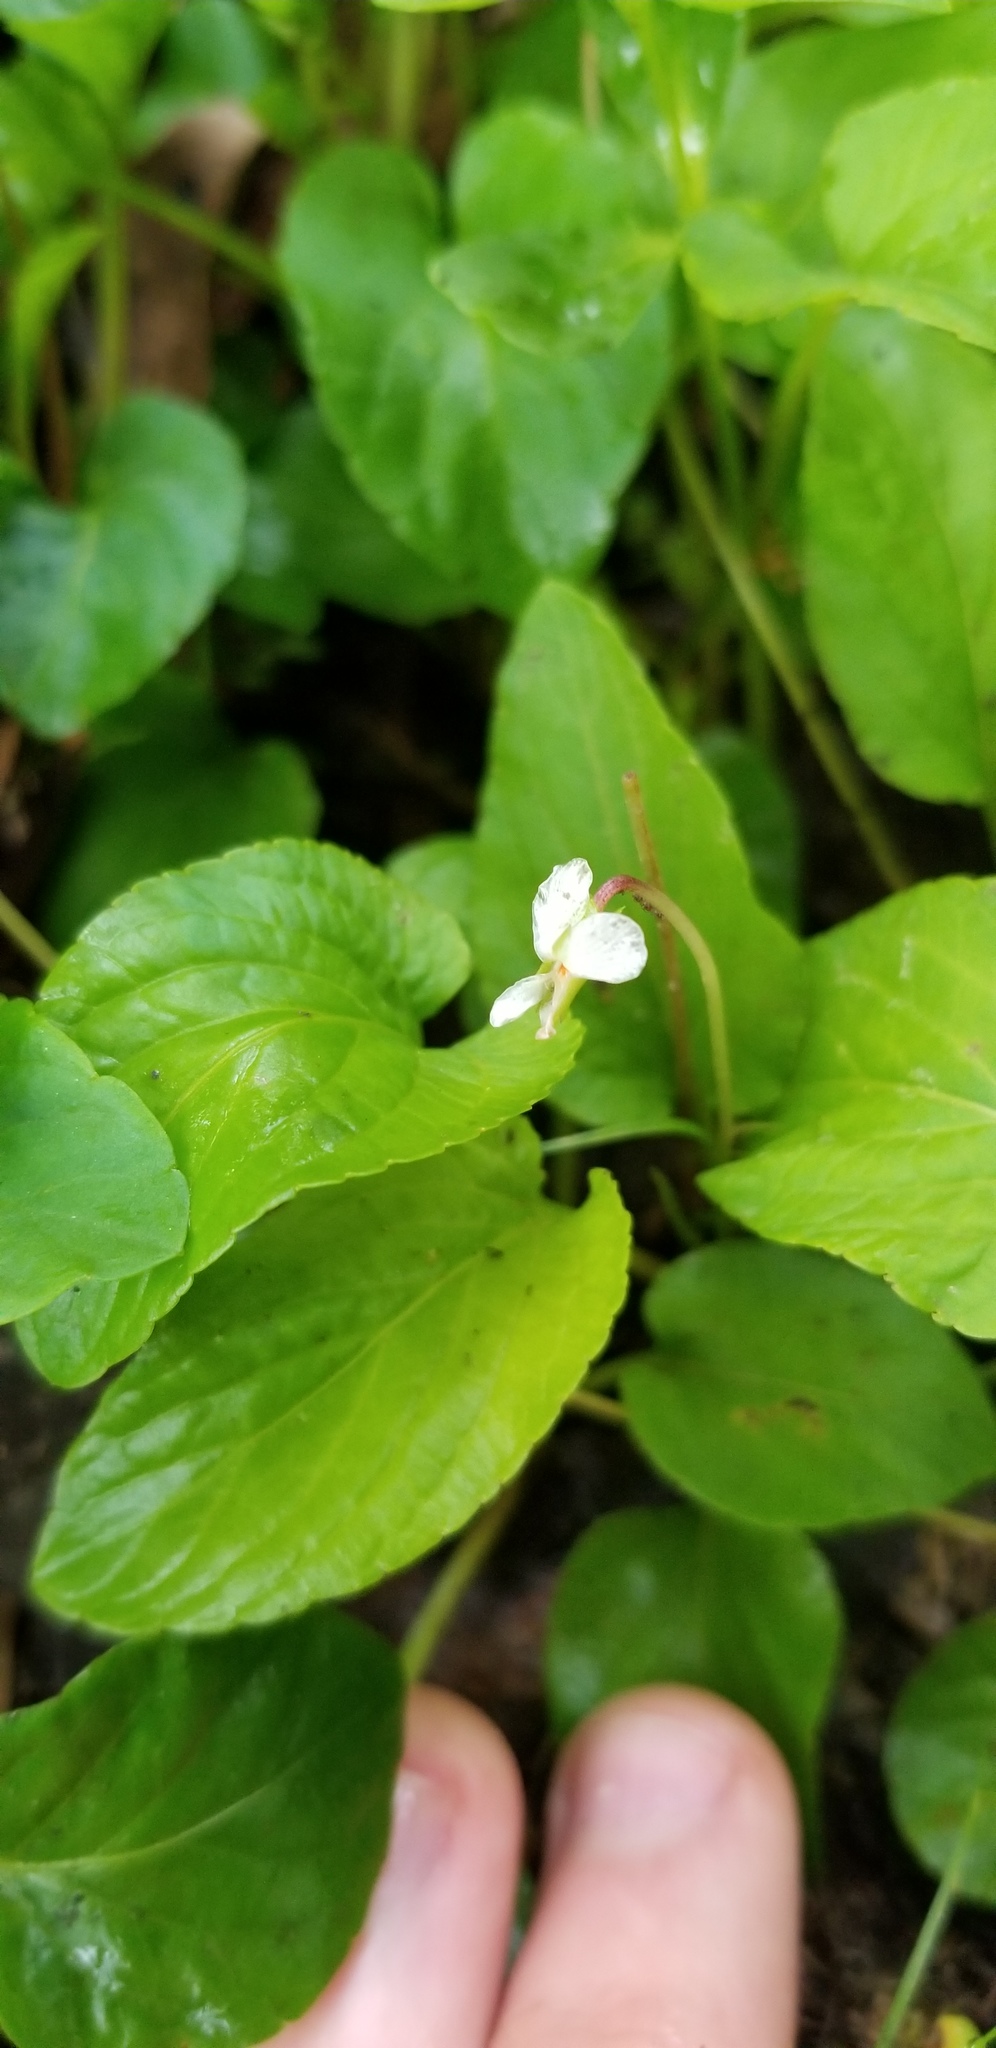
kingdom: Plantae
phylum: Tracheophyta
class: Magnoliopsida
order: Malpighiales
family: Violaceae
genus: Viola
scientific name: Viola primulifolia
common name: Primrose-leaf violet
